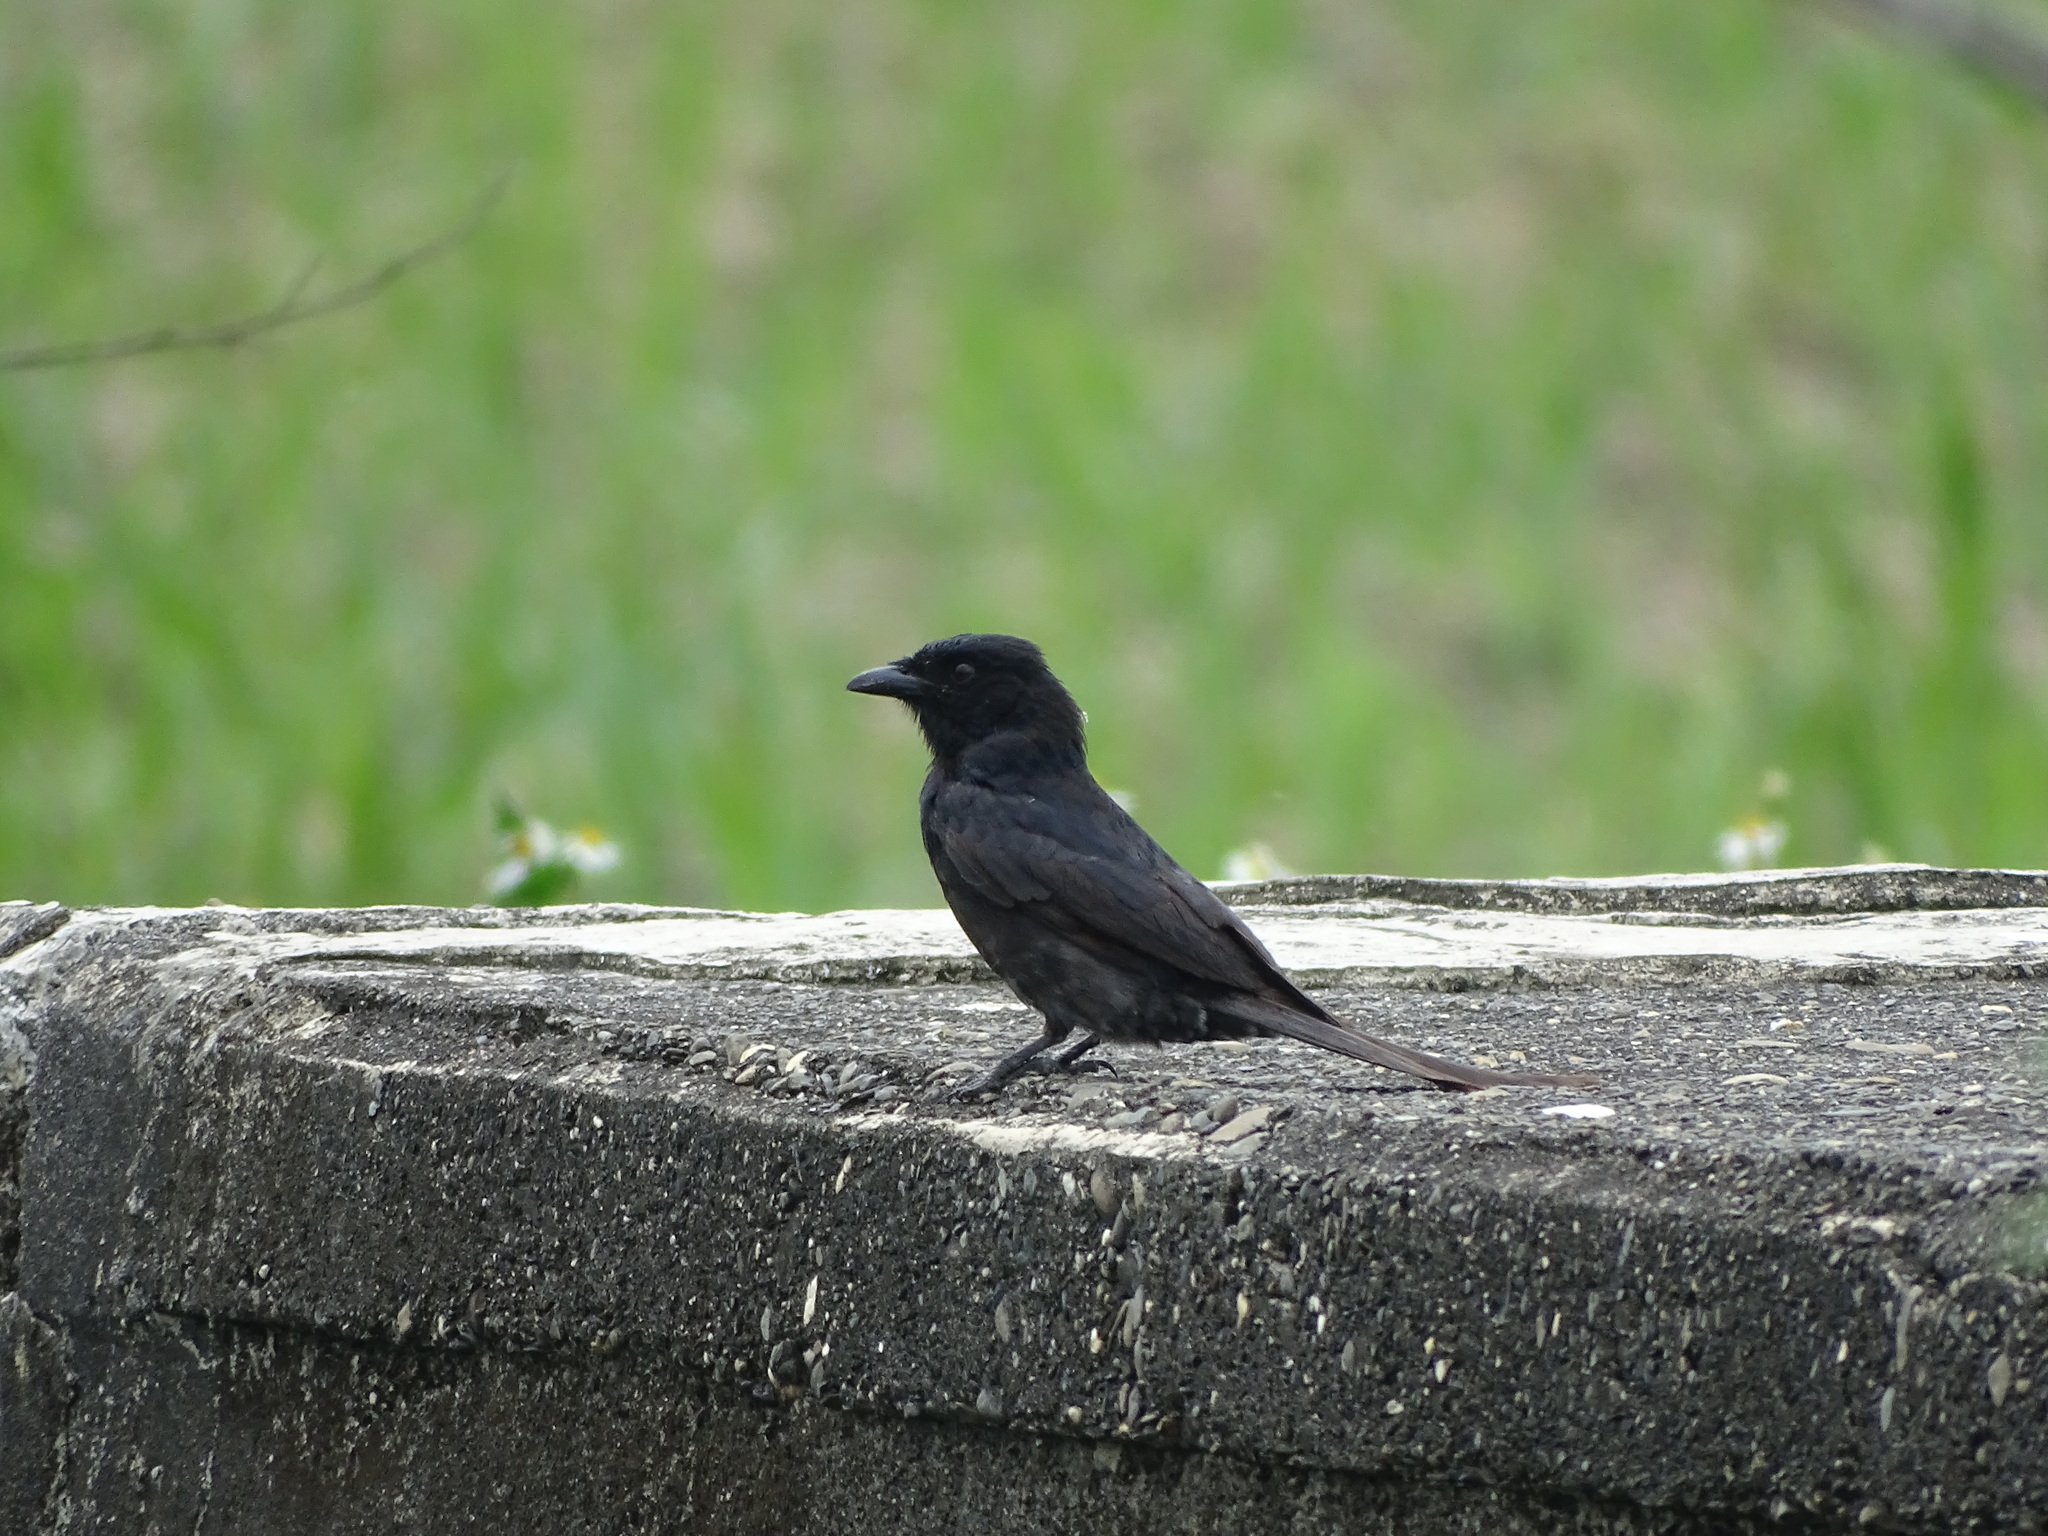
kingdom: Animalia
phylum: Chordata
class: Aves
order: Passeriformes
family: Dicruridae
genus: Dicrurus
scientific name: Dicrurus macrocercus
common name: Black drongo
